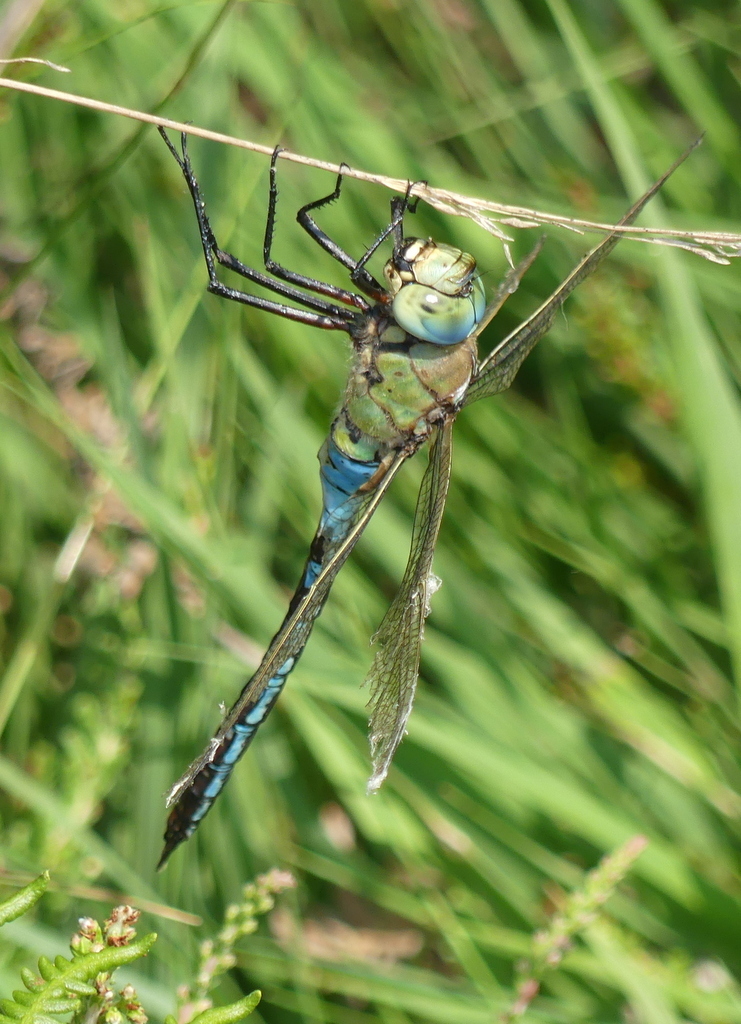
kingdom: Animalia
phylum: Arthropoda
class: Insecta
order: Odonata
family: Aeshnidae
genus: Anax
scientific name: Anax imperator
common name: Emperor dragonfly
